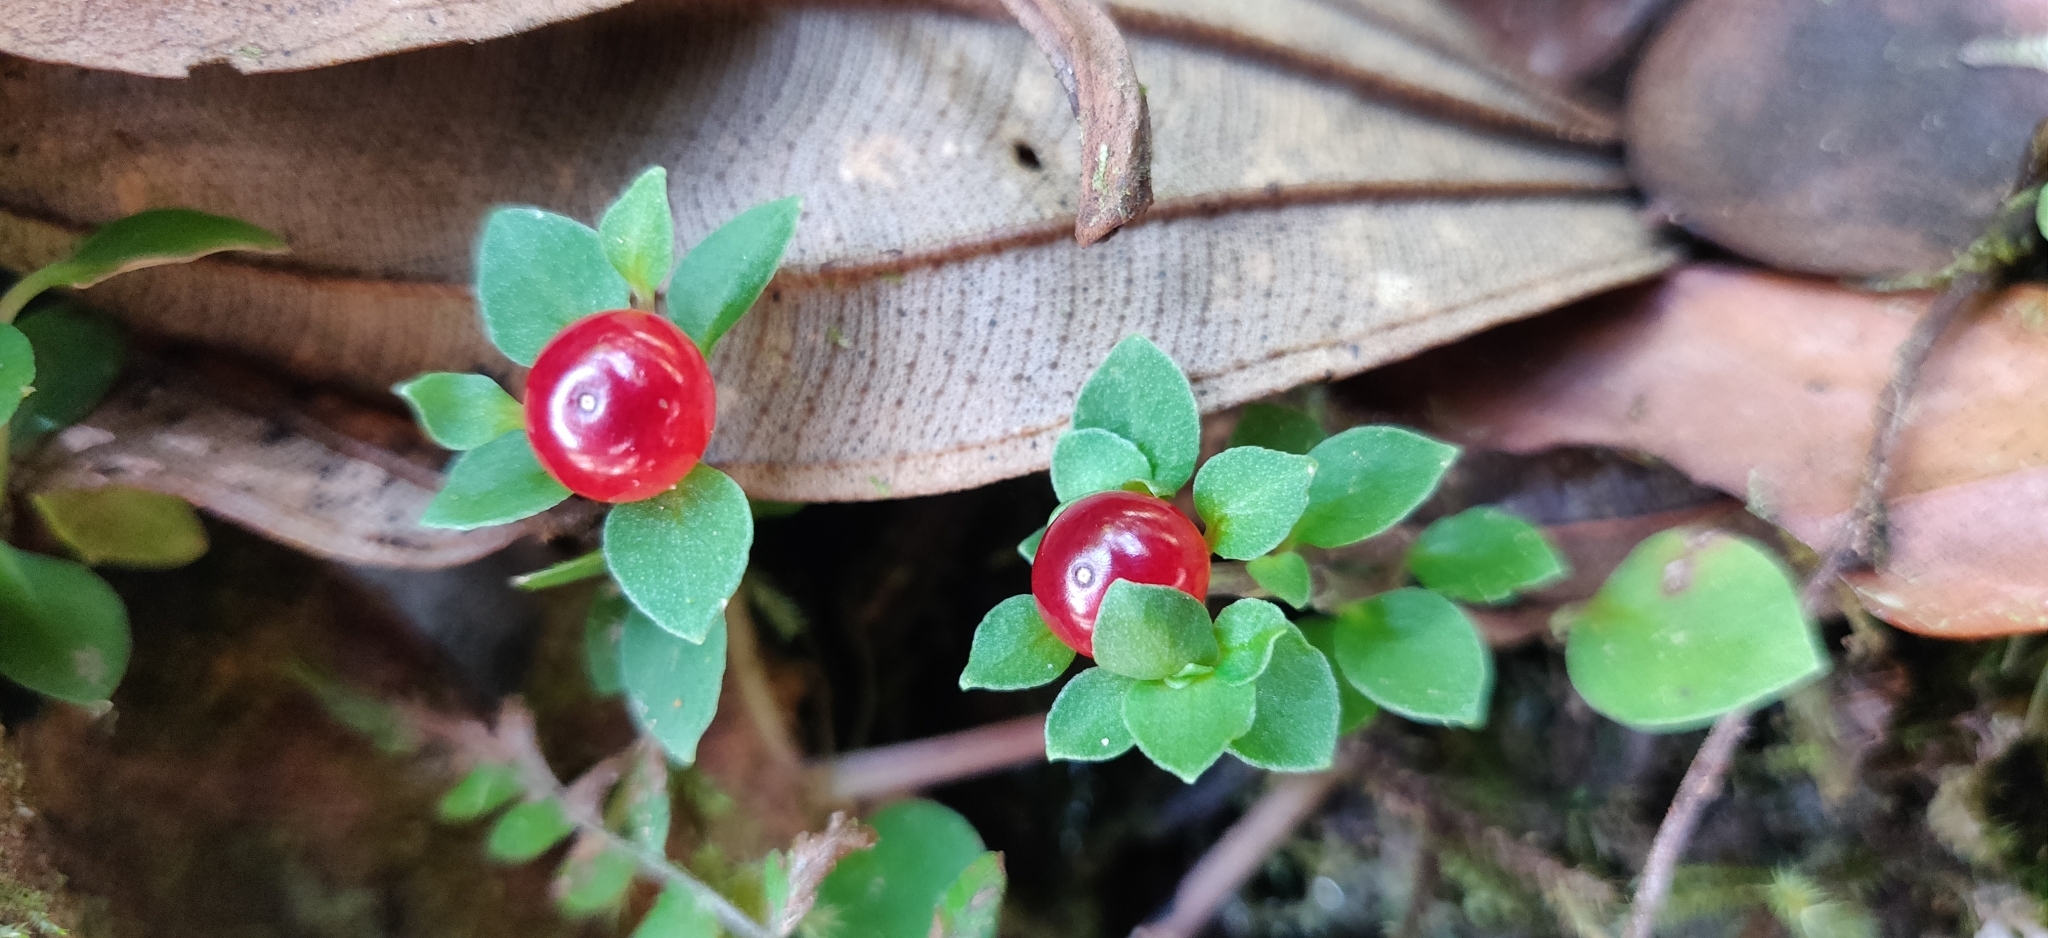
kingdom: Plantae
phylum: Tracheophyta
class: Magnoliopsida
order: Gentianales
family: Rubiaceae
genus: Nertera
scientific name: Nertera granadensis
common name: Beadplant
